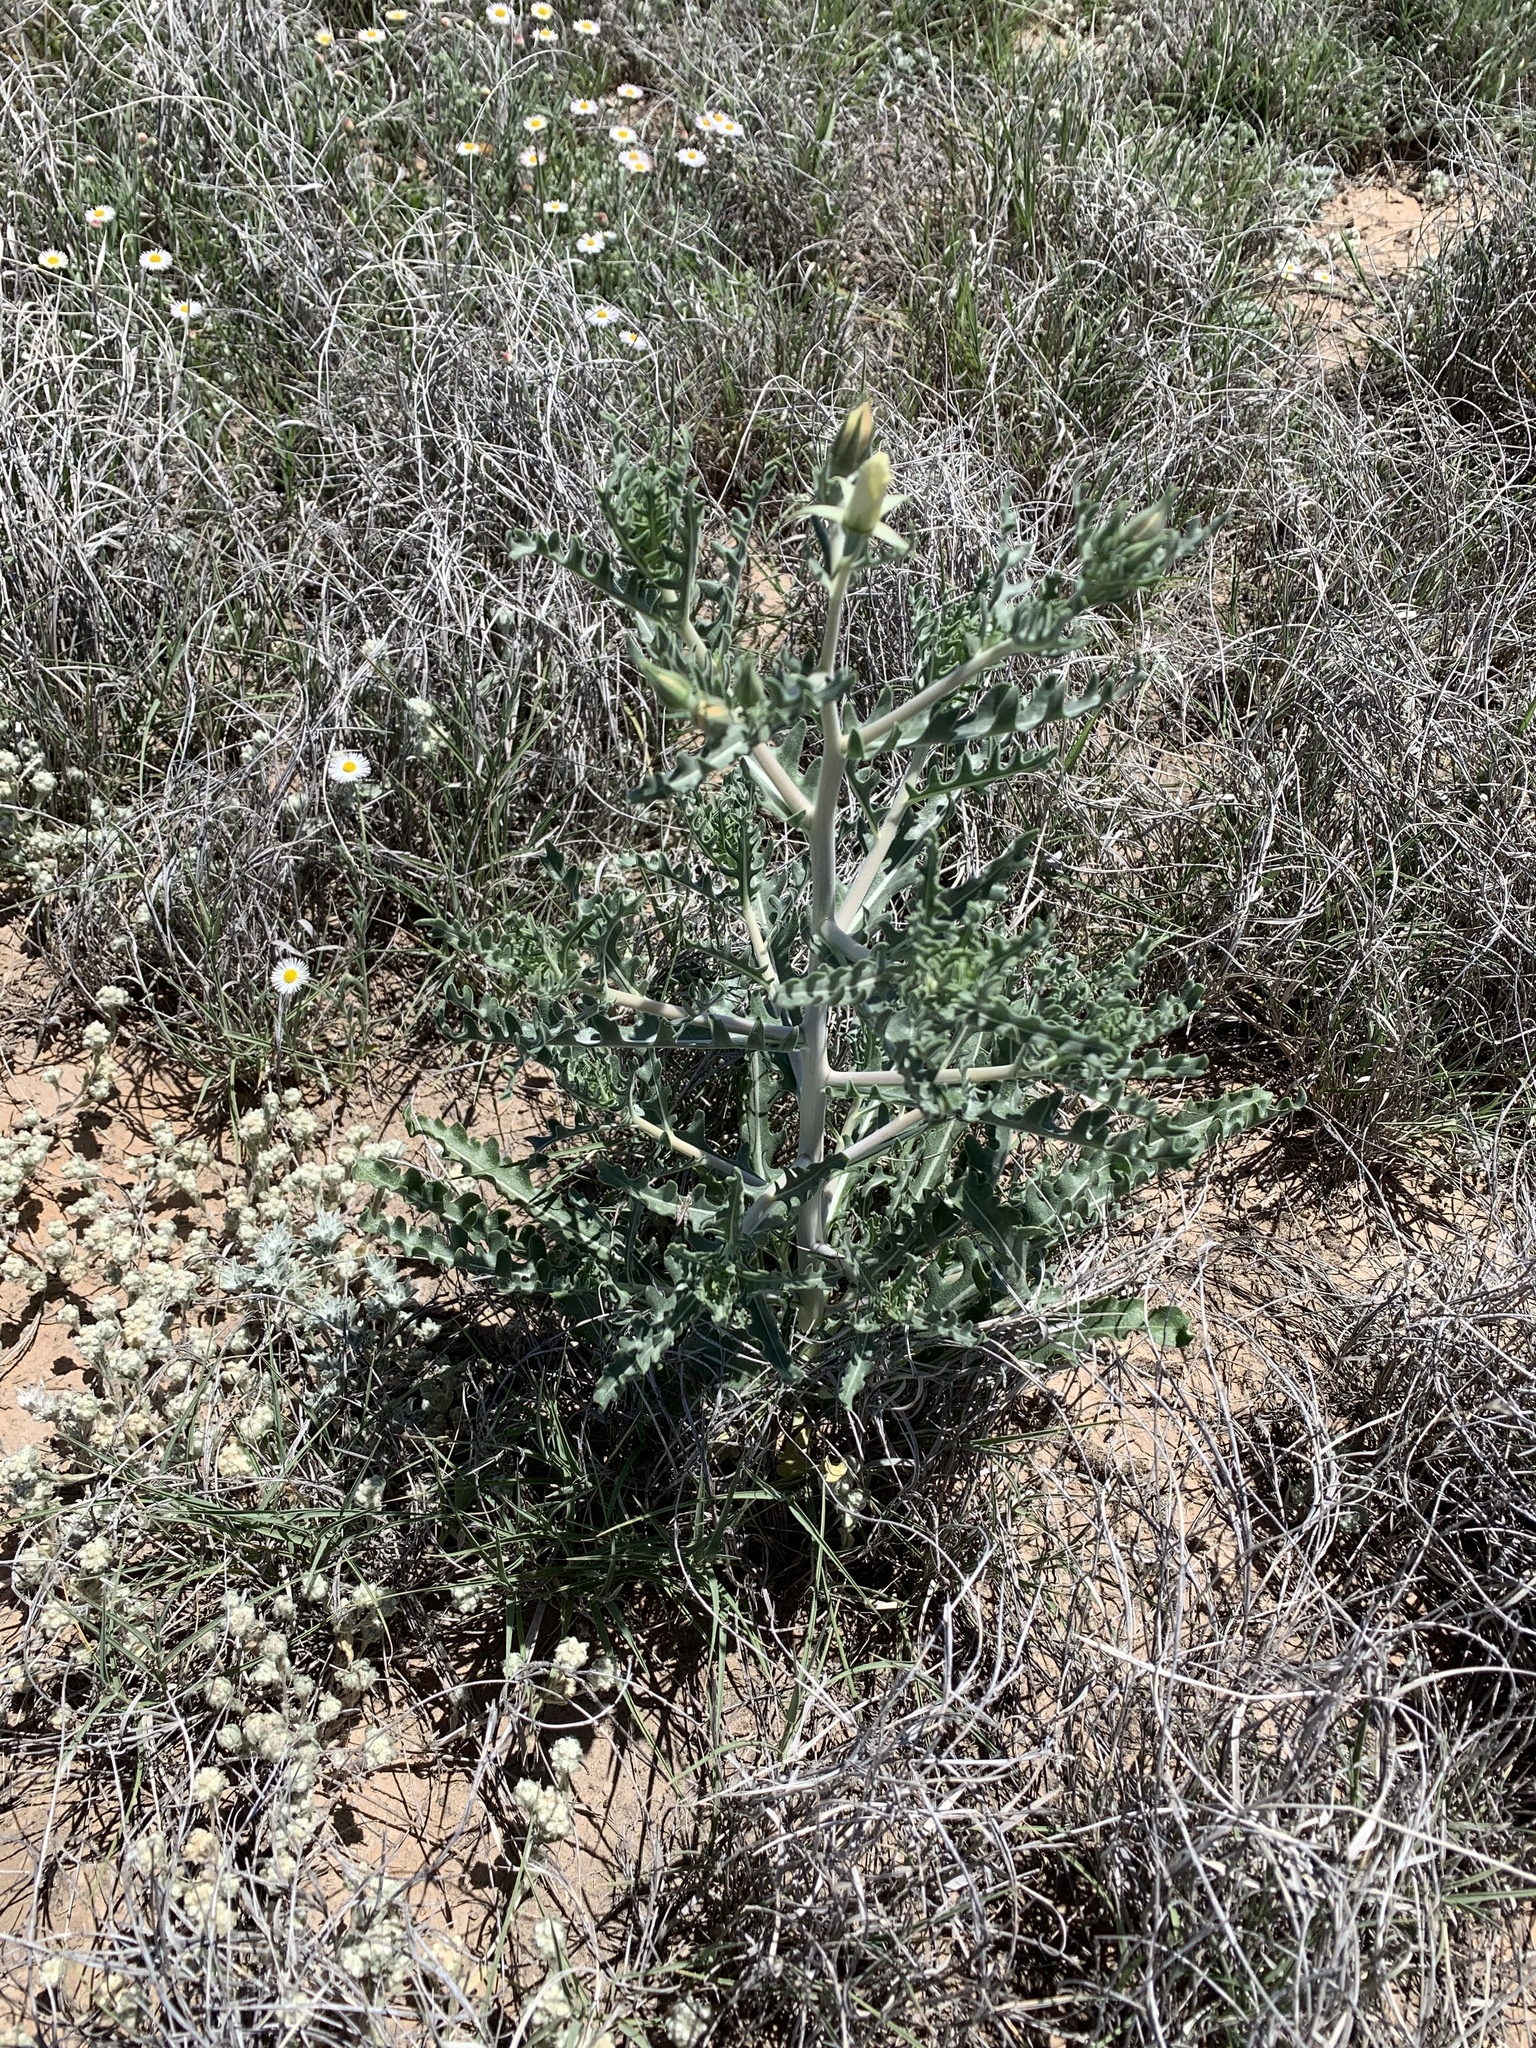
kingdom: Plantae
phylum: Tracheophyta
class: Magnoliopsida
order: Cornales
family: Loasaceae
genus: Mentzelia
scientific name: Mentzelia procera
